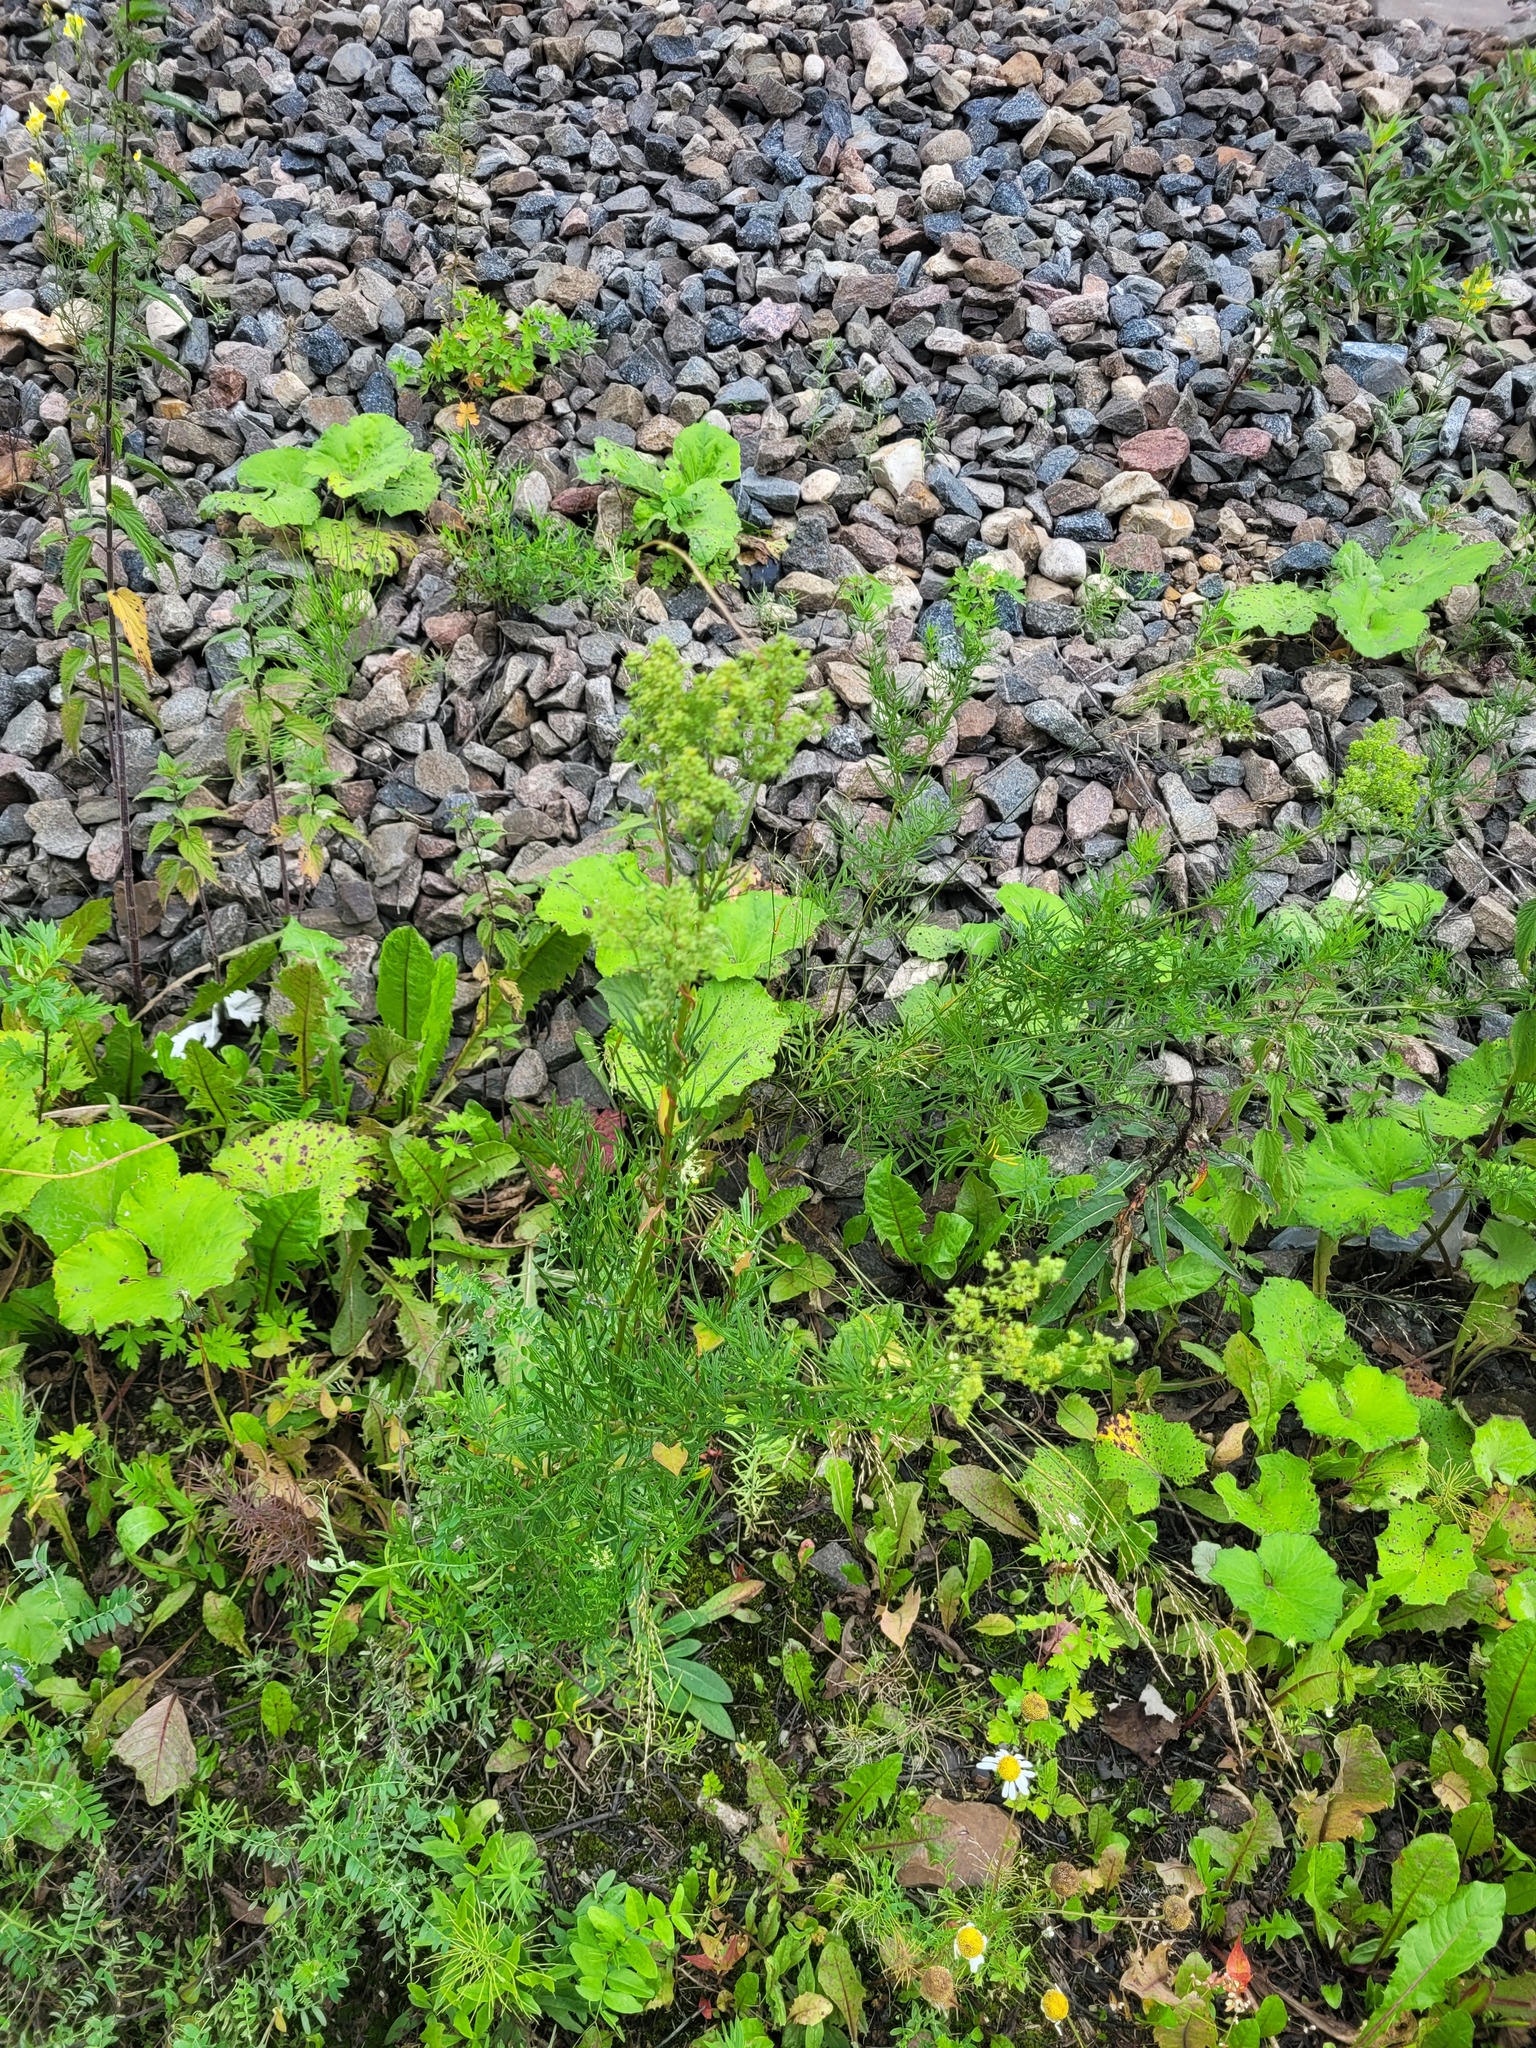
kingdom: Plantae
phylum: Tracheophyta
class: Magnoliopsida
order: Ranunculales
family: Ranunculaceae
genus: Thalictrum
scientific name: Thalictrum lucidum
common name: Shining meadow-rue
